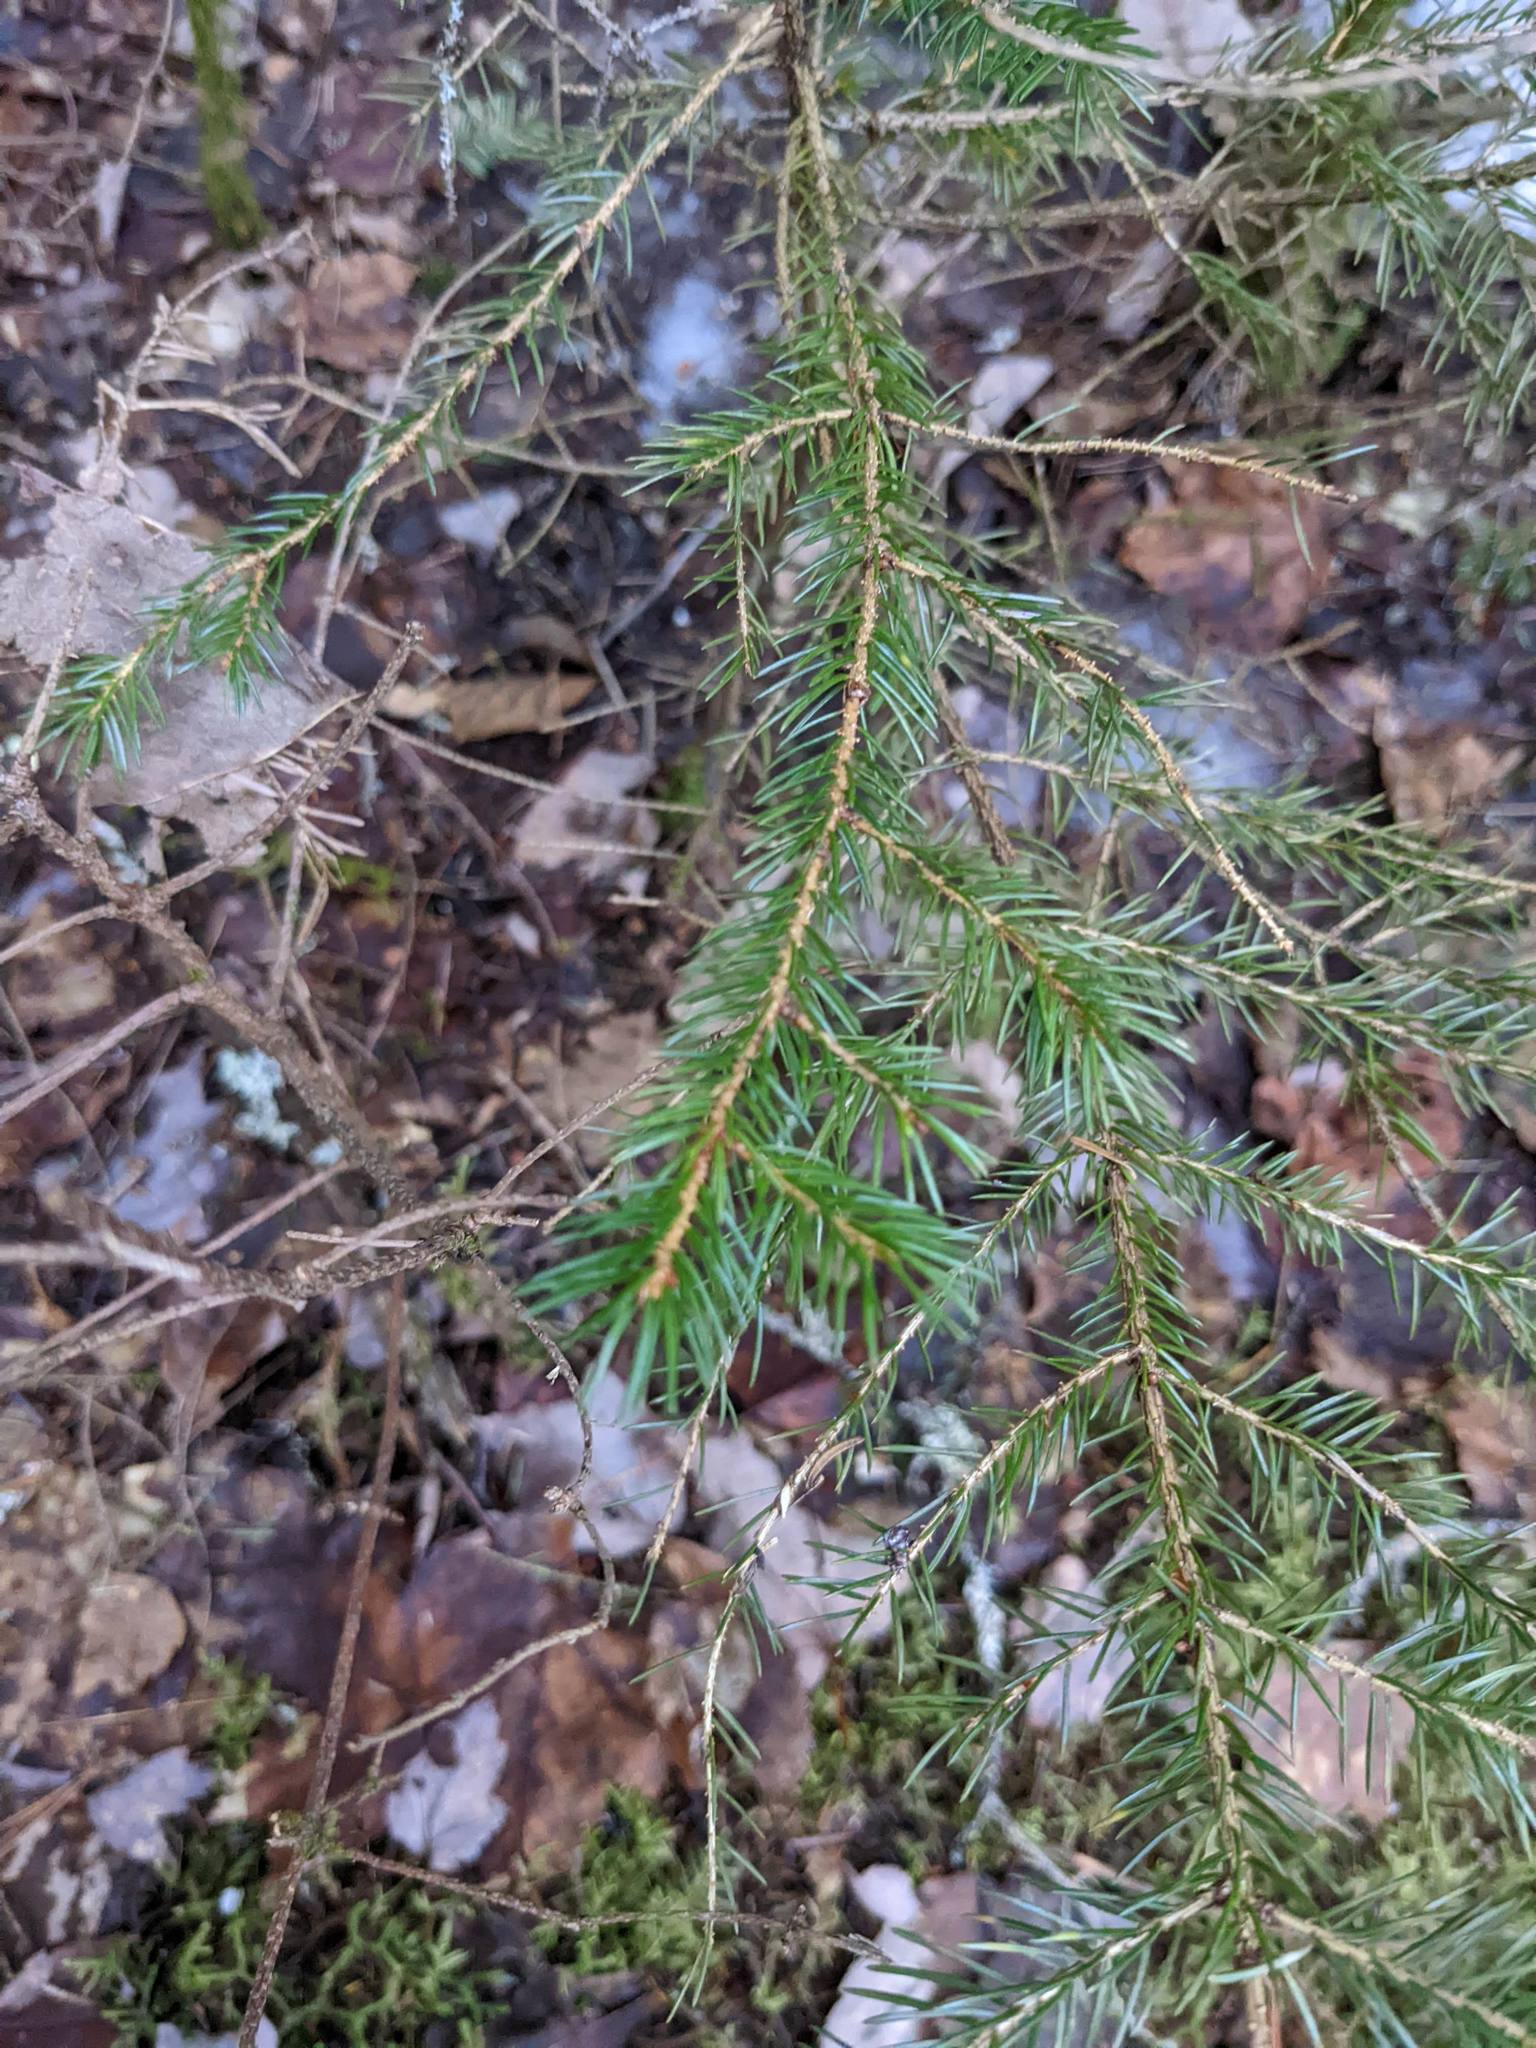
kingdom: Plantae
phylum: Tracheophyta
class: Pinopsida
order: Pinales
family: Pinaceae
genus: Picea
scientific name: Picea rubens
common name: Red spruce
